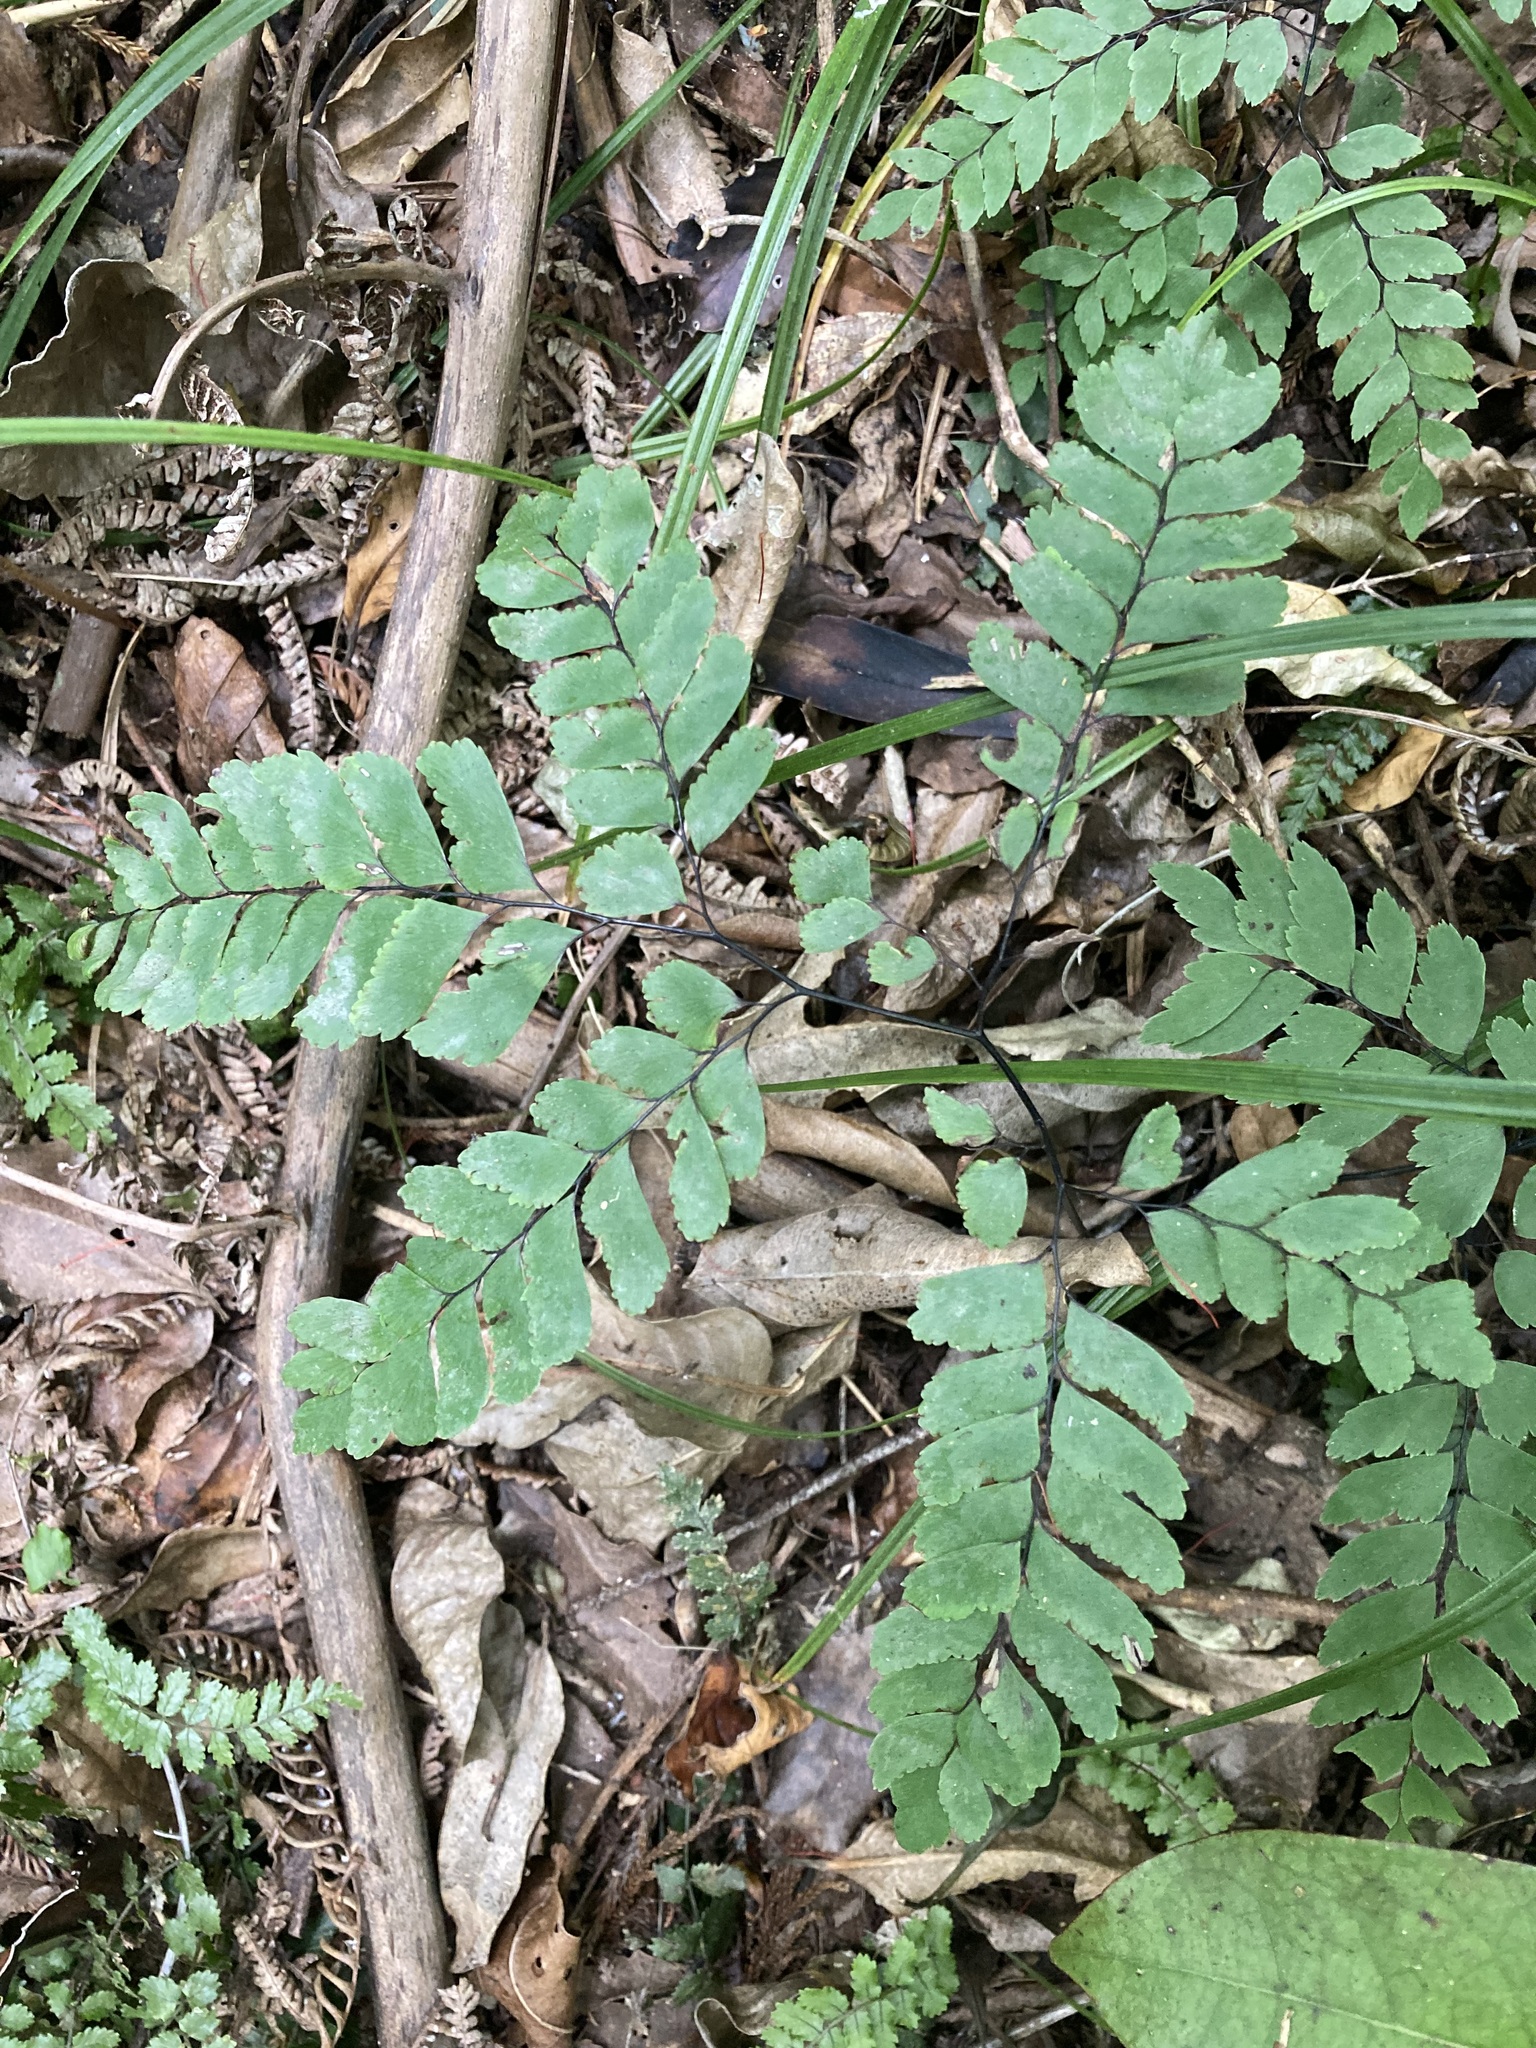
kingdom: Plantae
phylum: Tracheophyta
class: Polypodiopsida
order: Polypodiales
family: Pteridaceae
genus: Adiantum
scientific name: Adiantum cunninghamii
